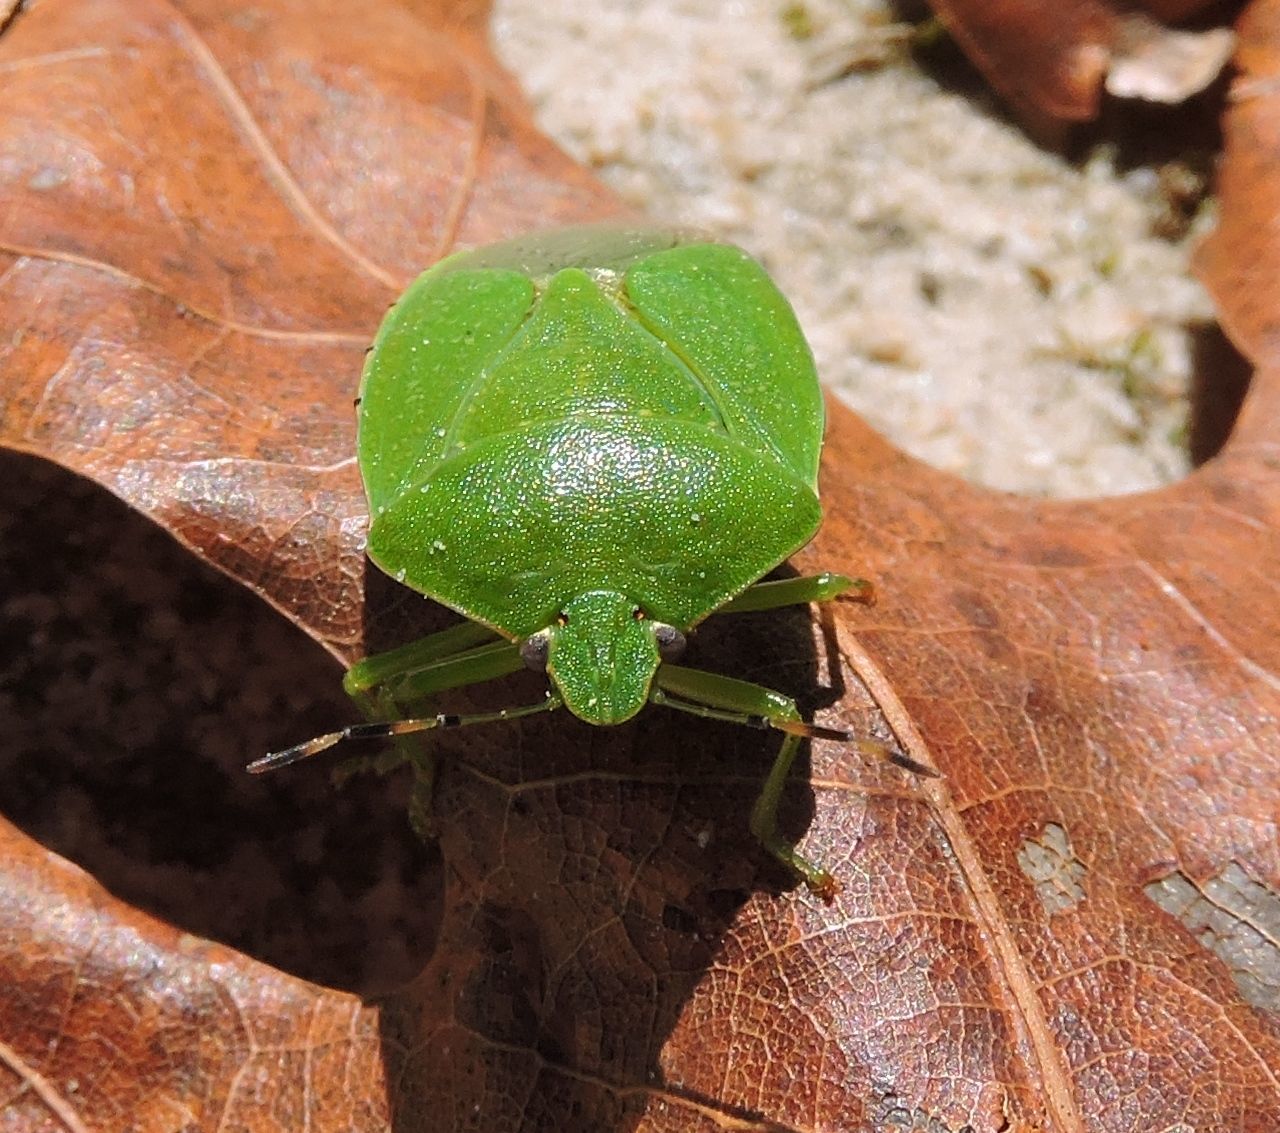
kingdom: Animalia
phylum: Arthropoda
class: Insecta
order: Hemiptera
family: Pentatomidae
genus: Chinavia
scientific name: Chinavia hilaris
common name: Green stink bug
